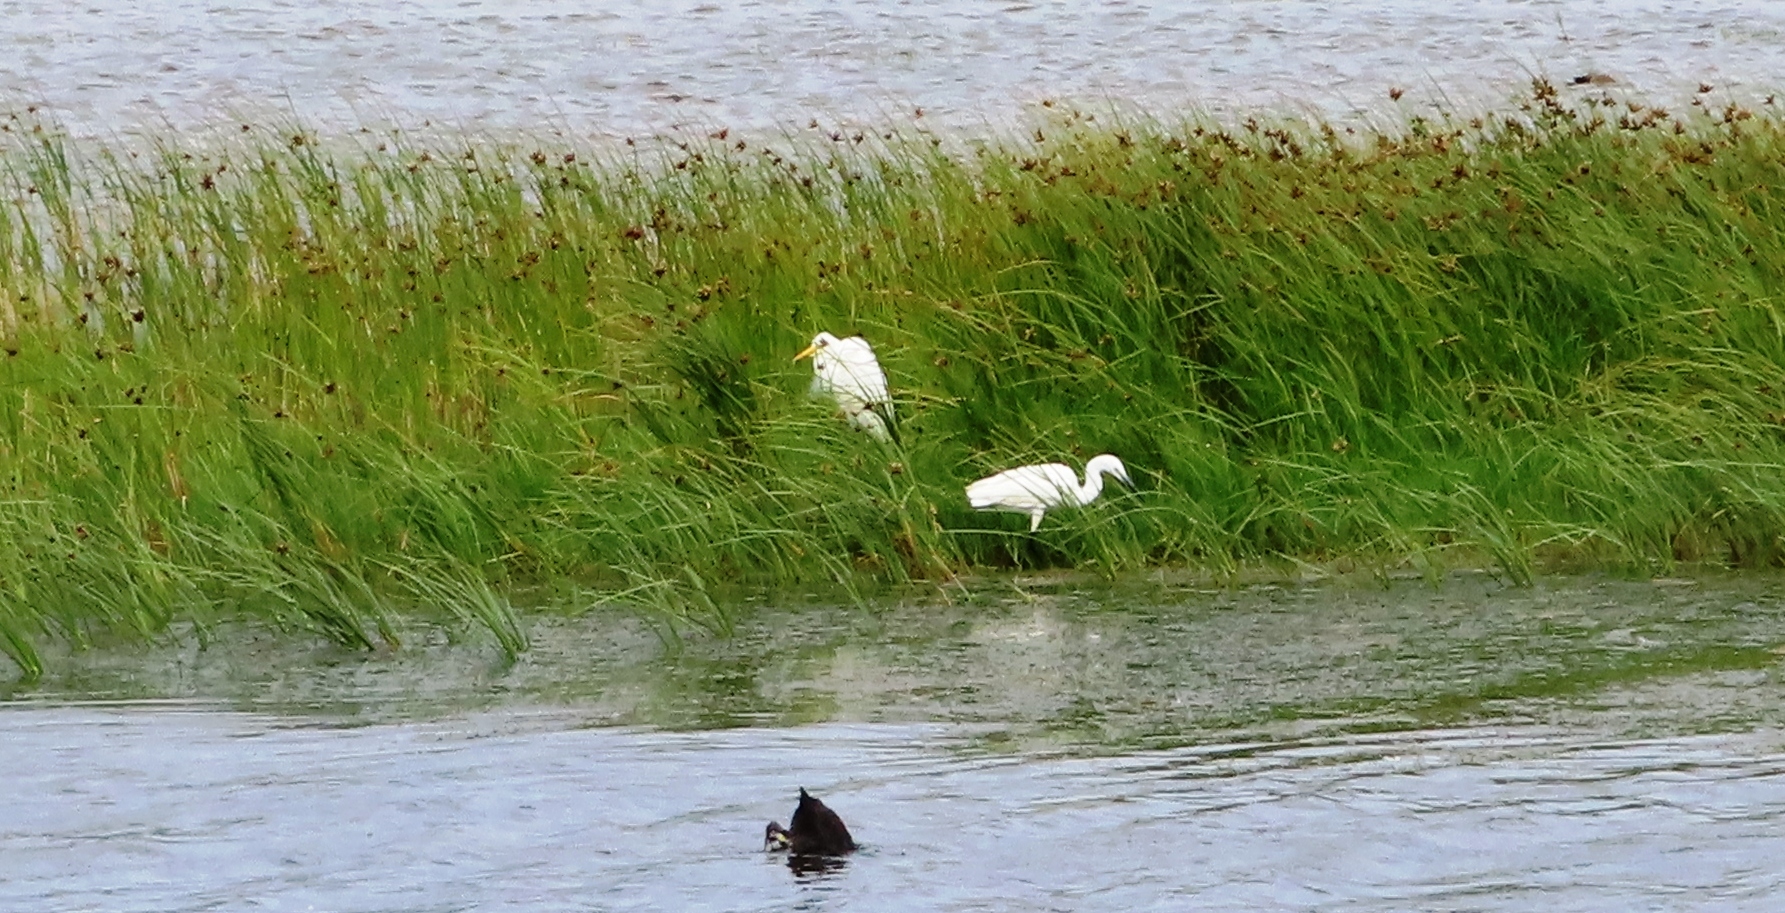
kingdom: Animalia
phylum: Chordata
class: Aves
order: Pelecaniformes
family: Ardeidae
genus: Egretta
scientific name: Egretta garzetta
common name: Little egret
